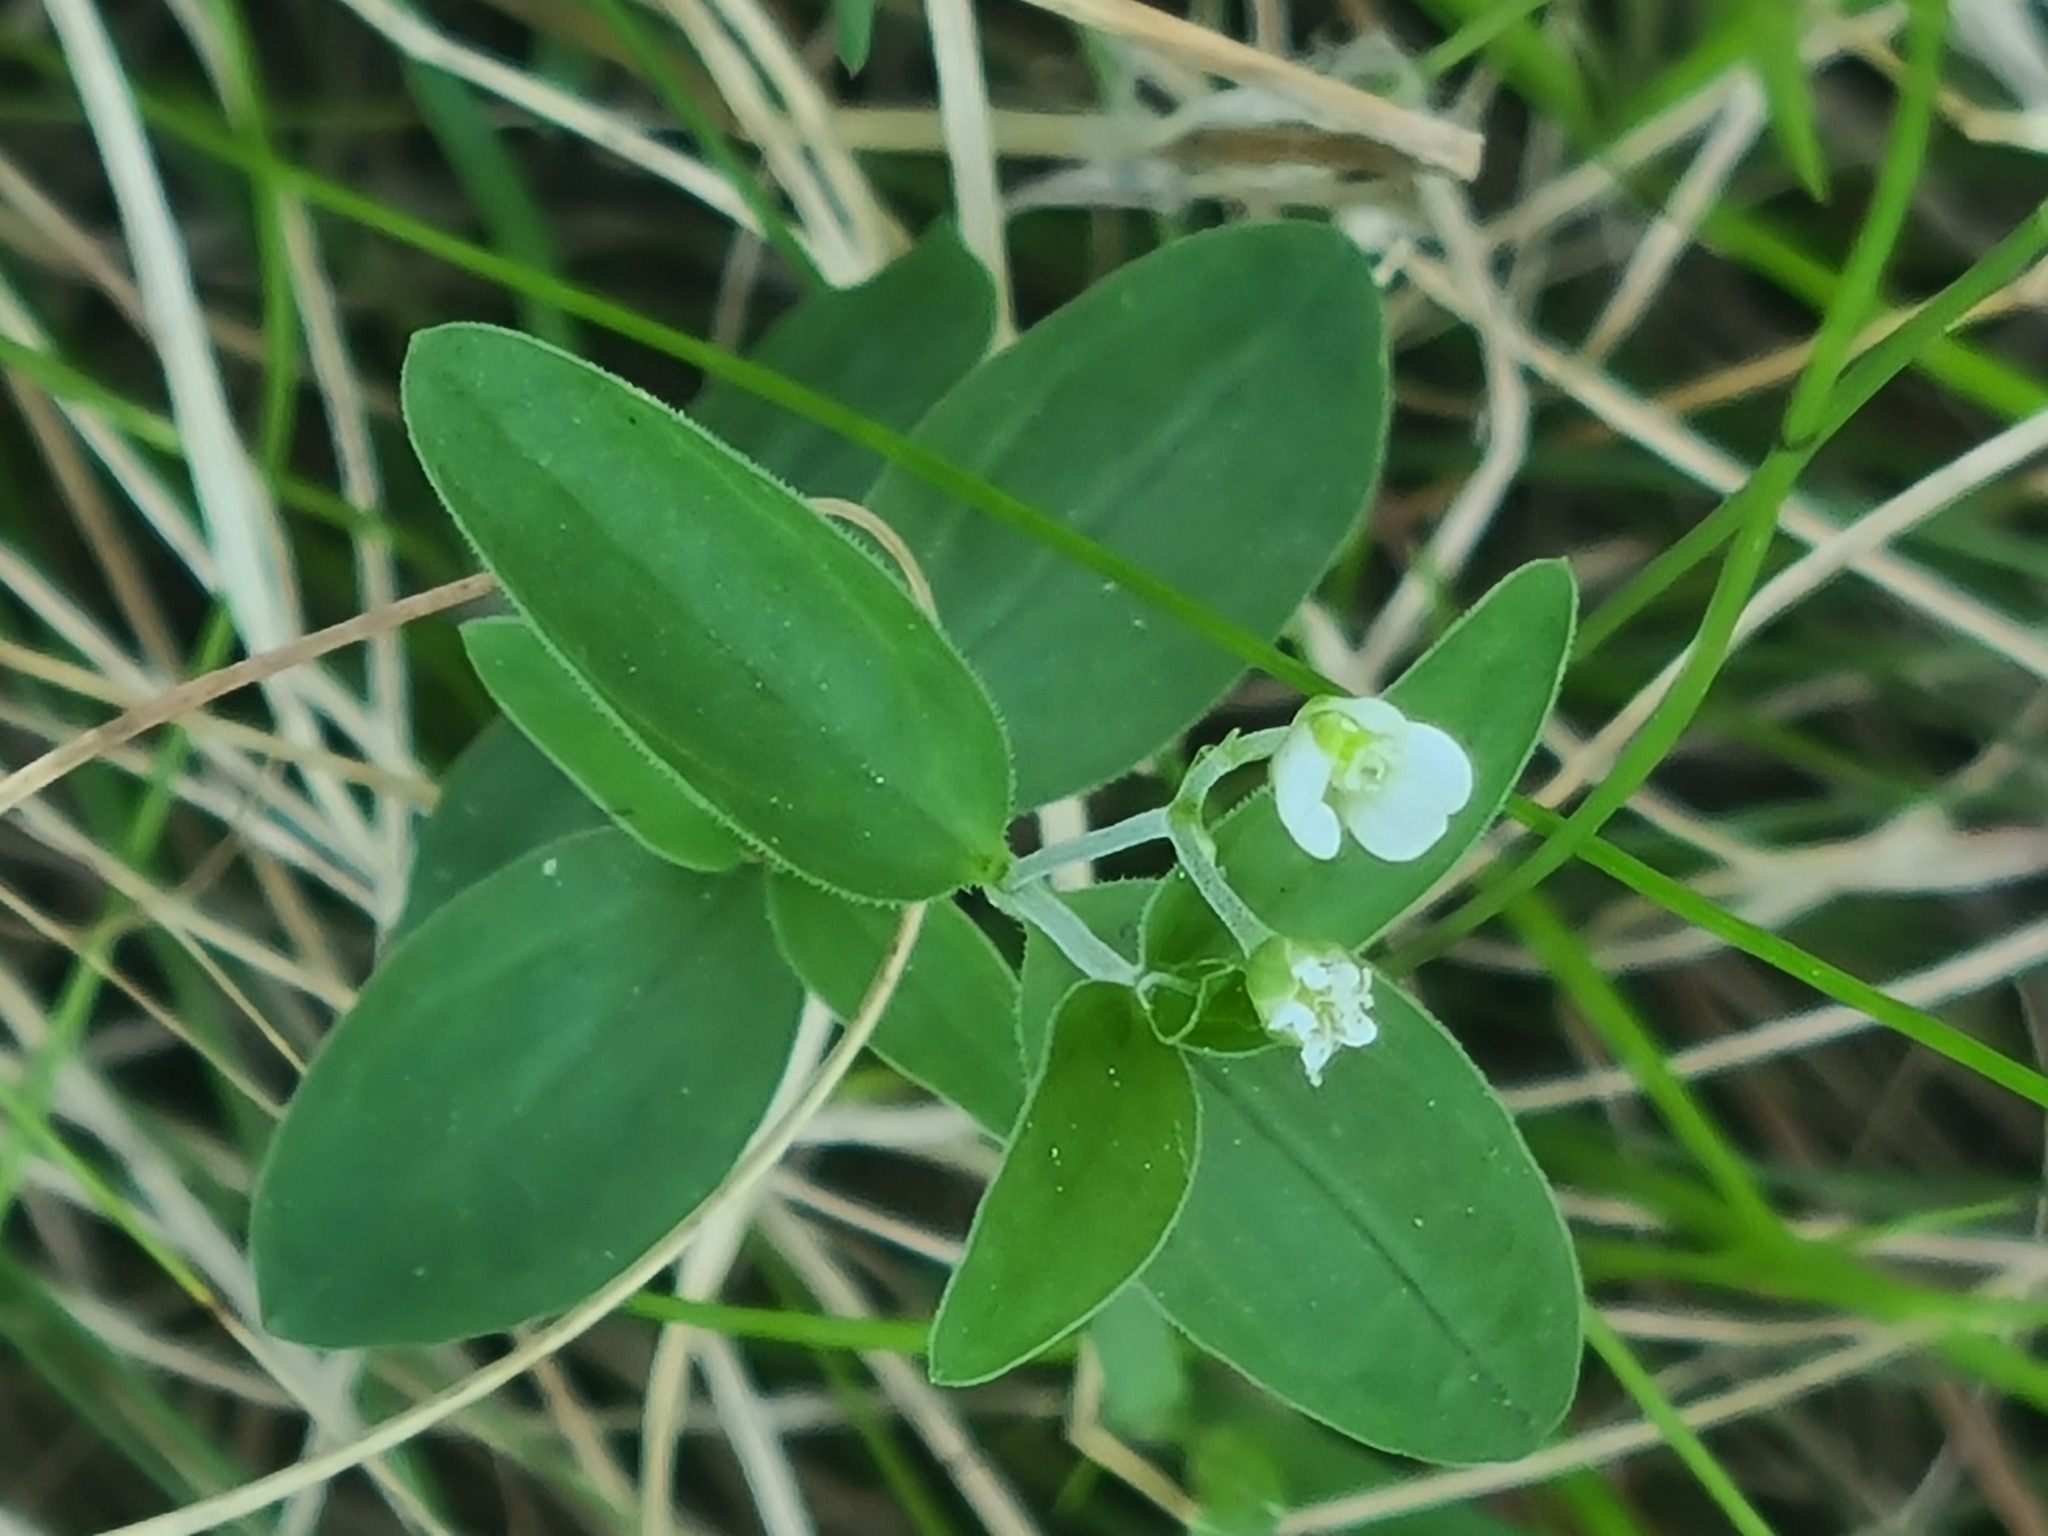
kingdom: Plantae
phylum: Tracheophyta
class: Magnoliopsida
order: Caryophyllales
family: Caryophyllaceae
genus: Moehringia
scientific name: Moehringia lateriflora
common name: Blunt-leaved sandwort
